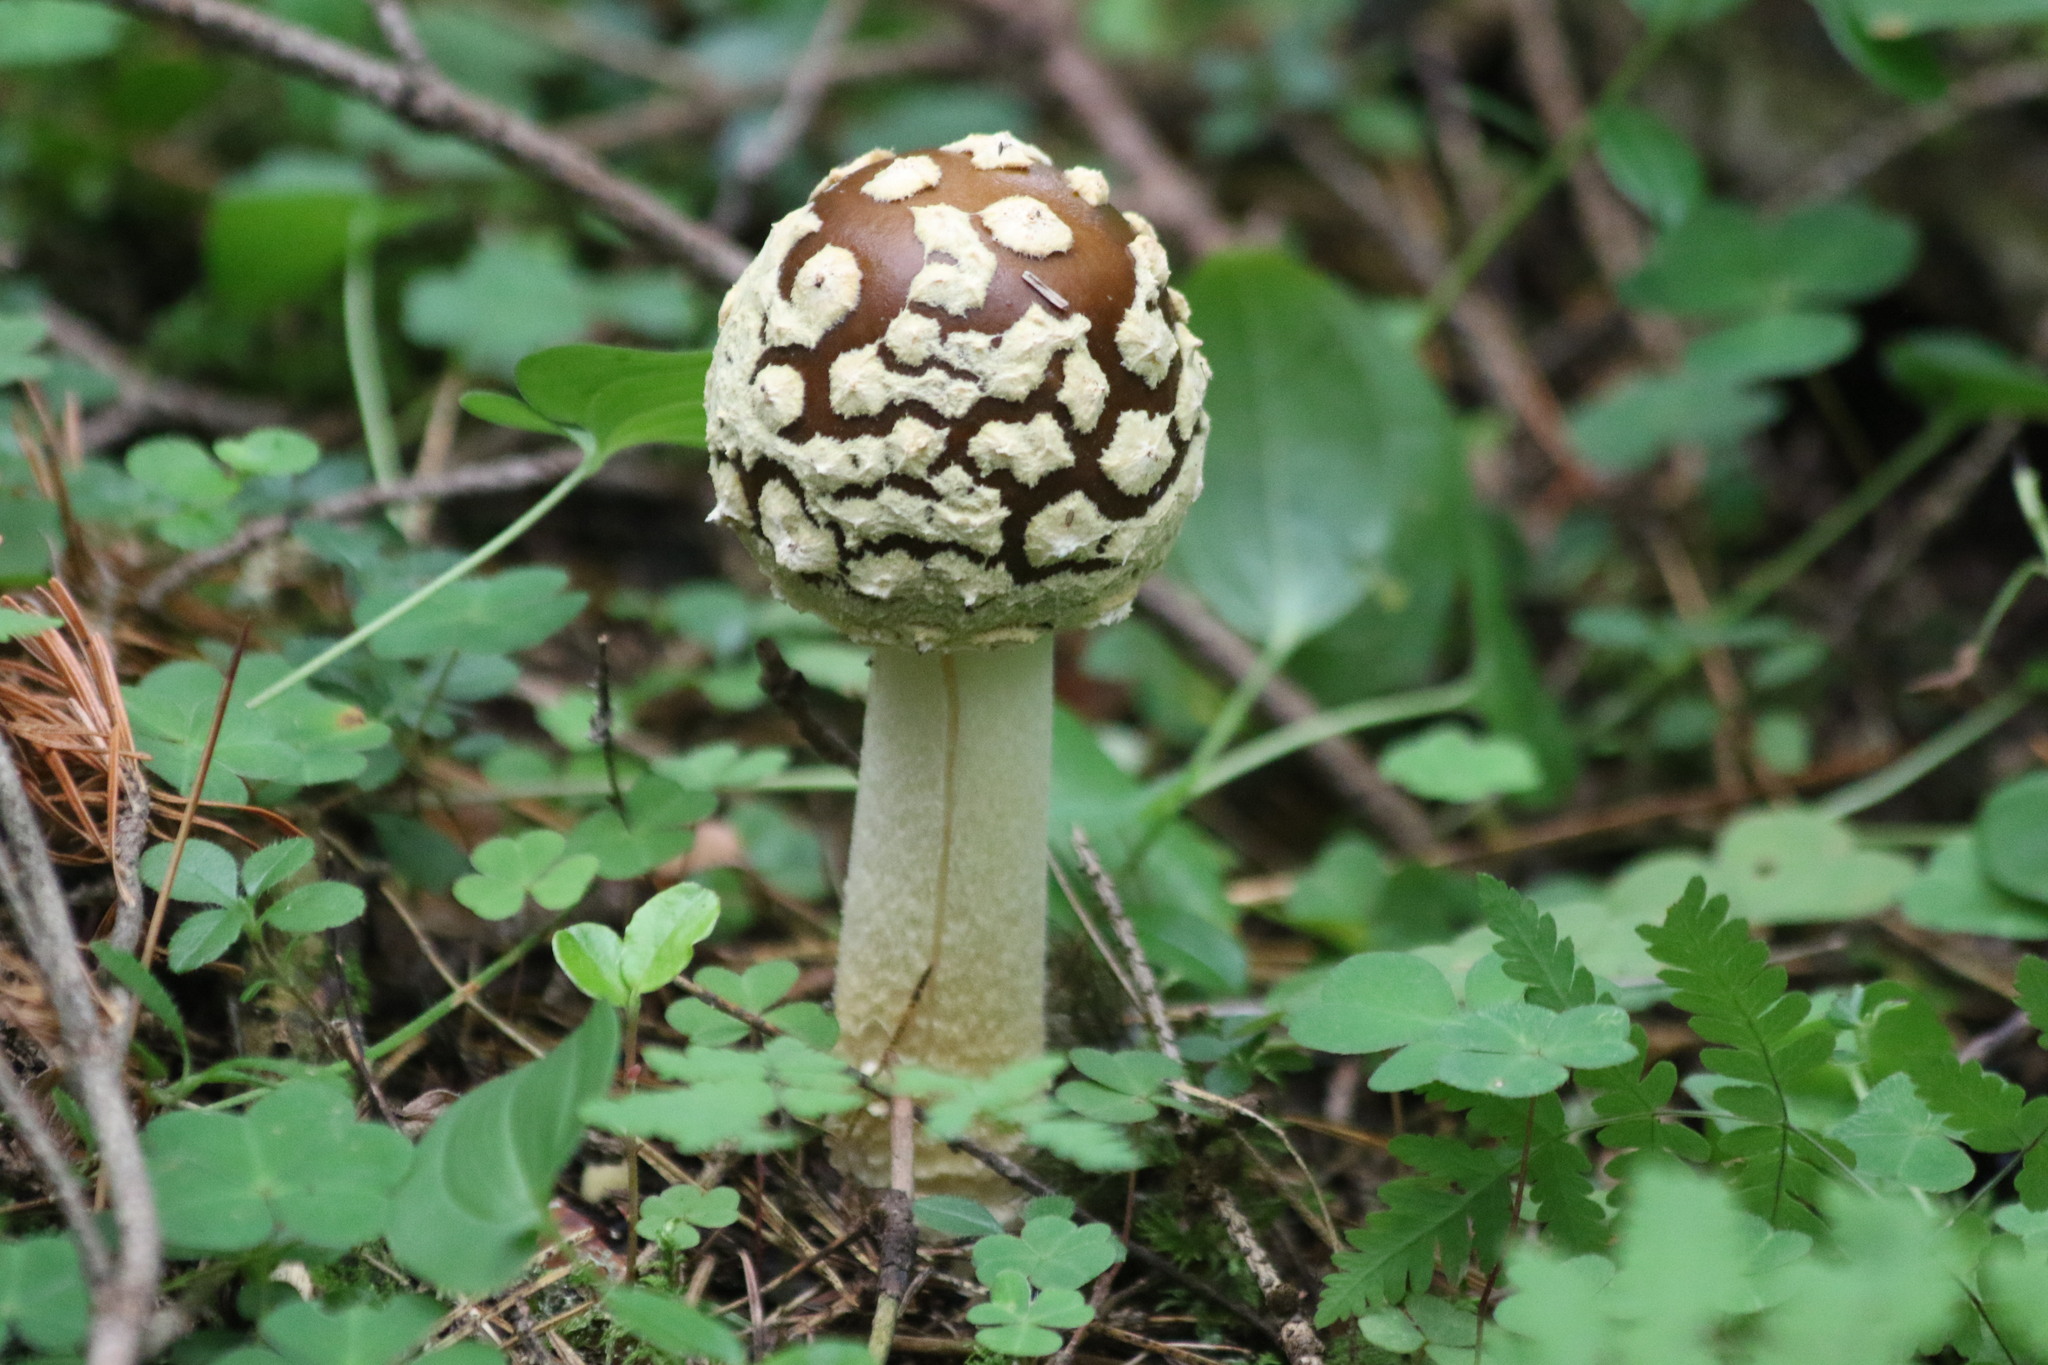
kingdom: Fungi
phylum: Basidiomycota
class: Agaricomycetes
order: Agaricales
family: Amanitaceae
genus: Amanita
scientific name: Amanita regalis
